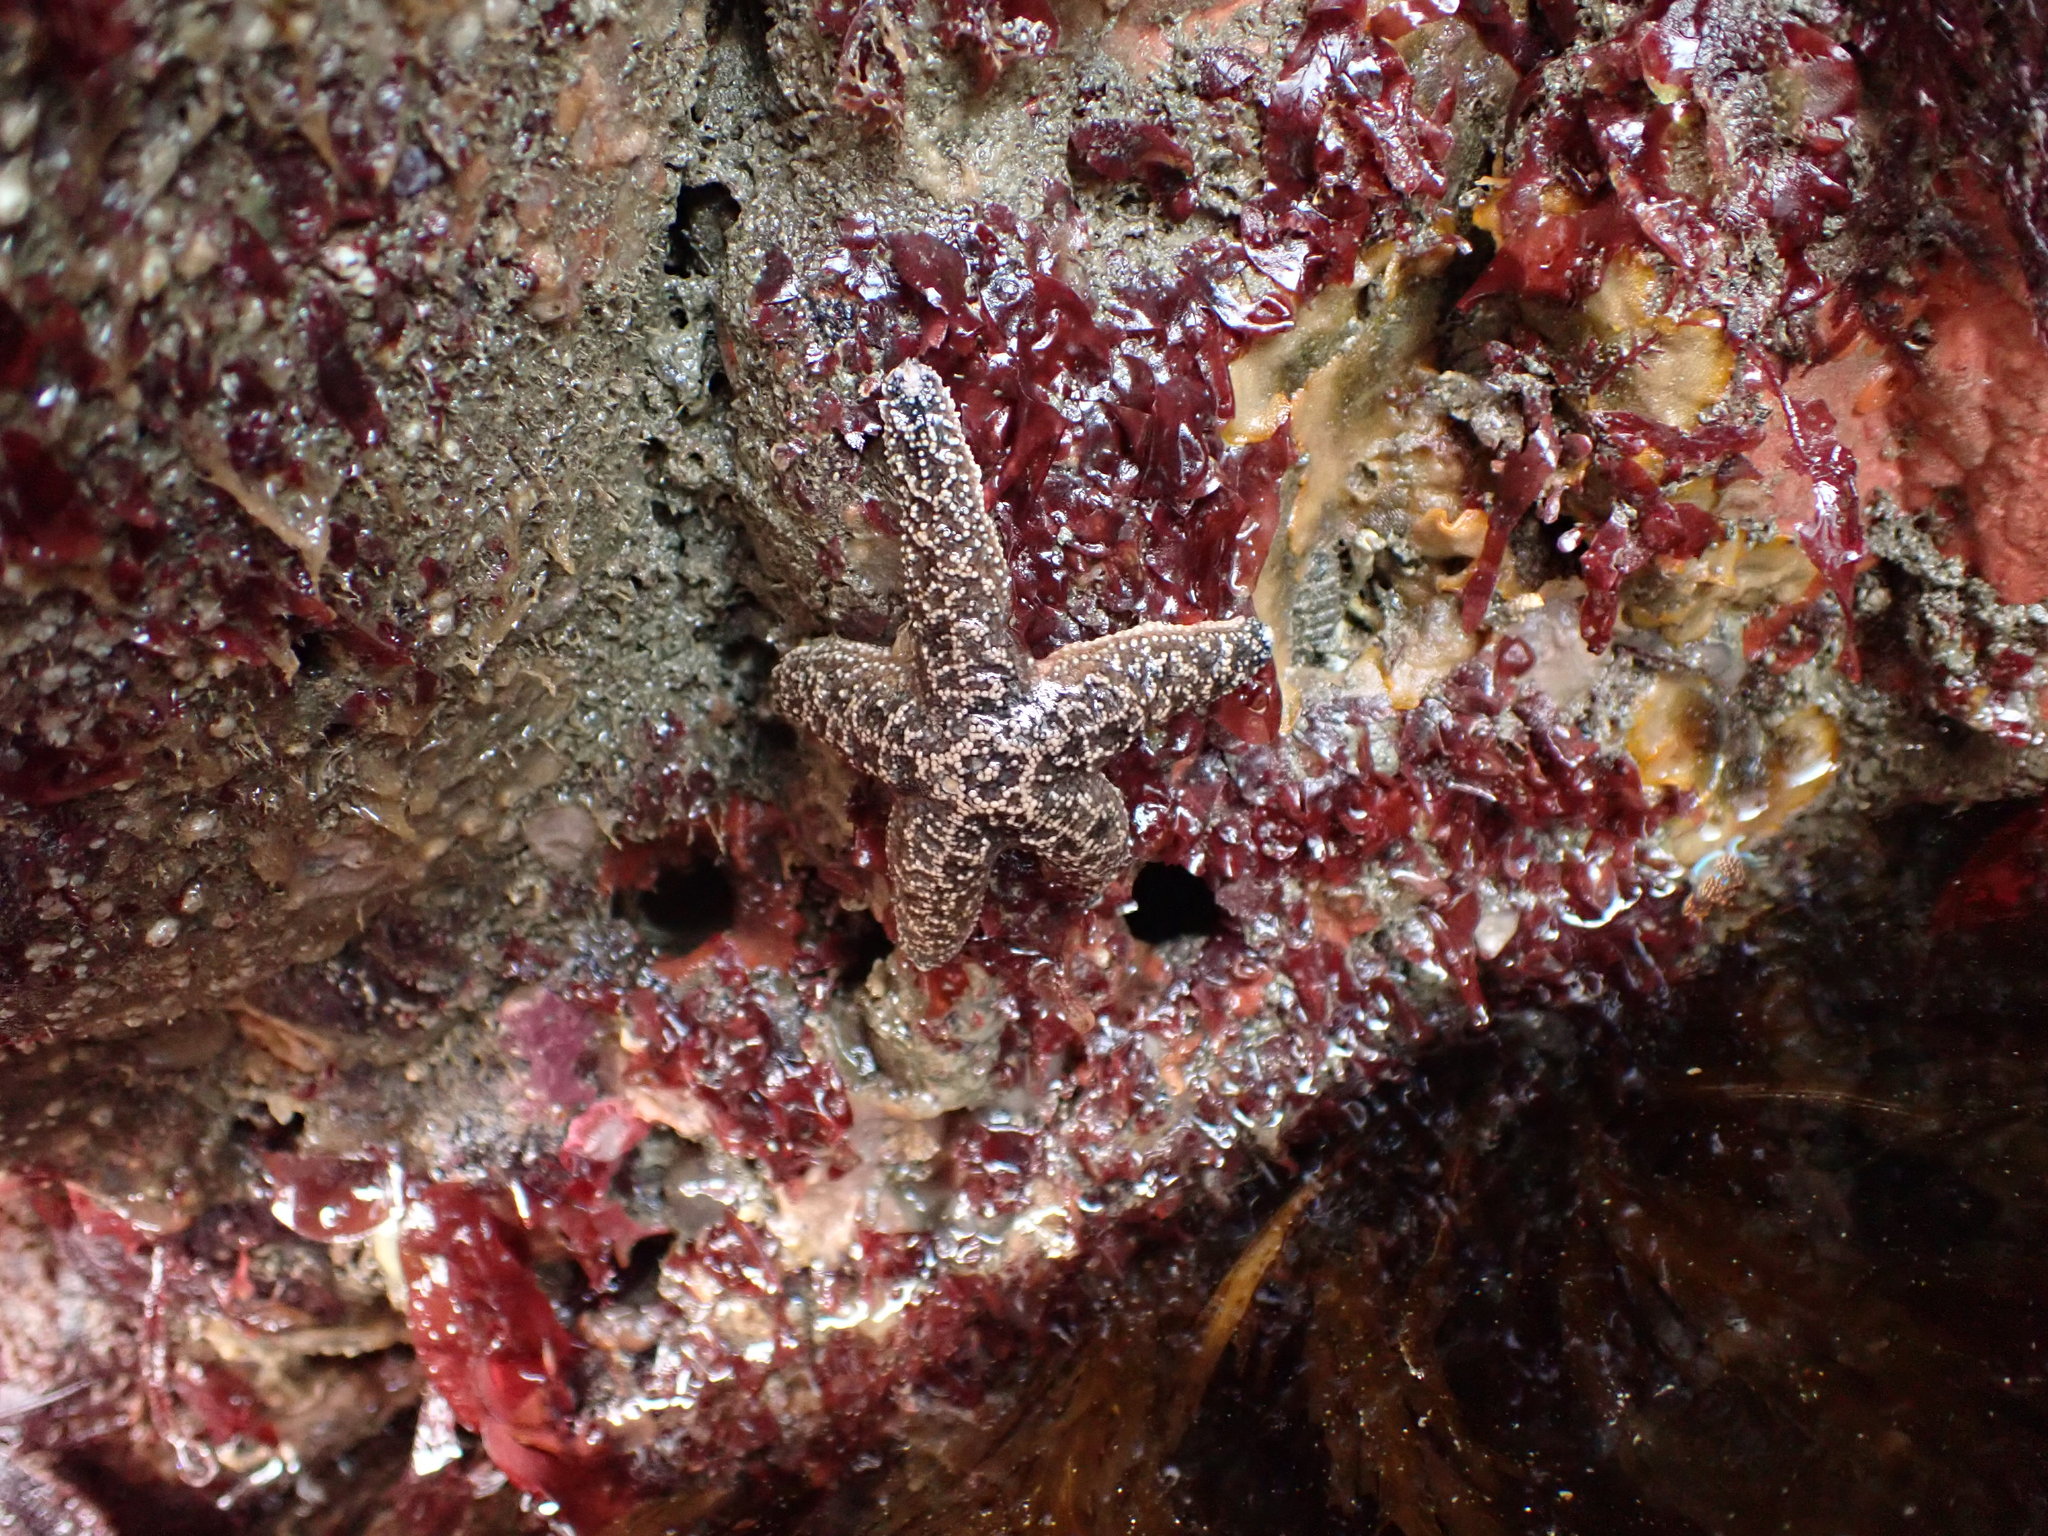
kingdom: Animalia
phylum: Echinodermata
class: Asteroidea
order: Forcipulatida
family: Asteriidae
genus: Pisaster
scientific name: Pisaster ochraceus
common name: Ochre stars
